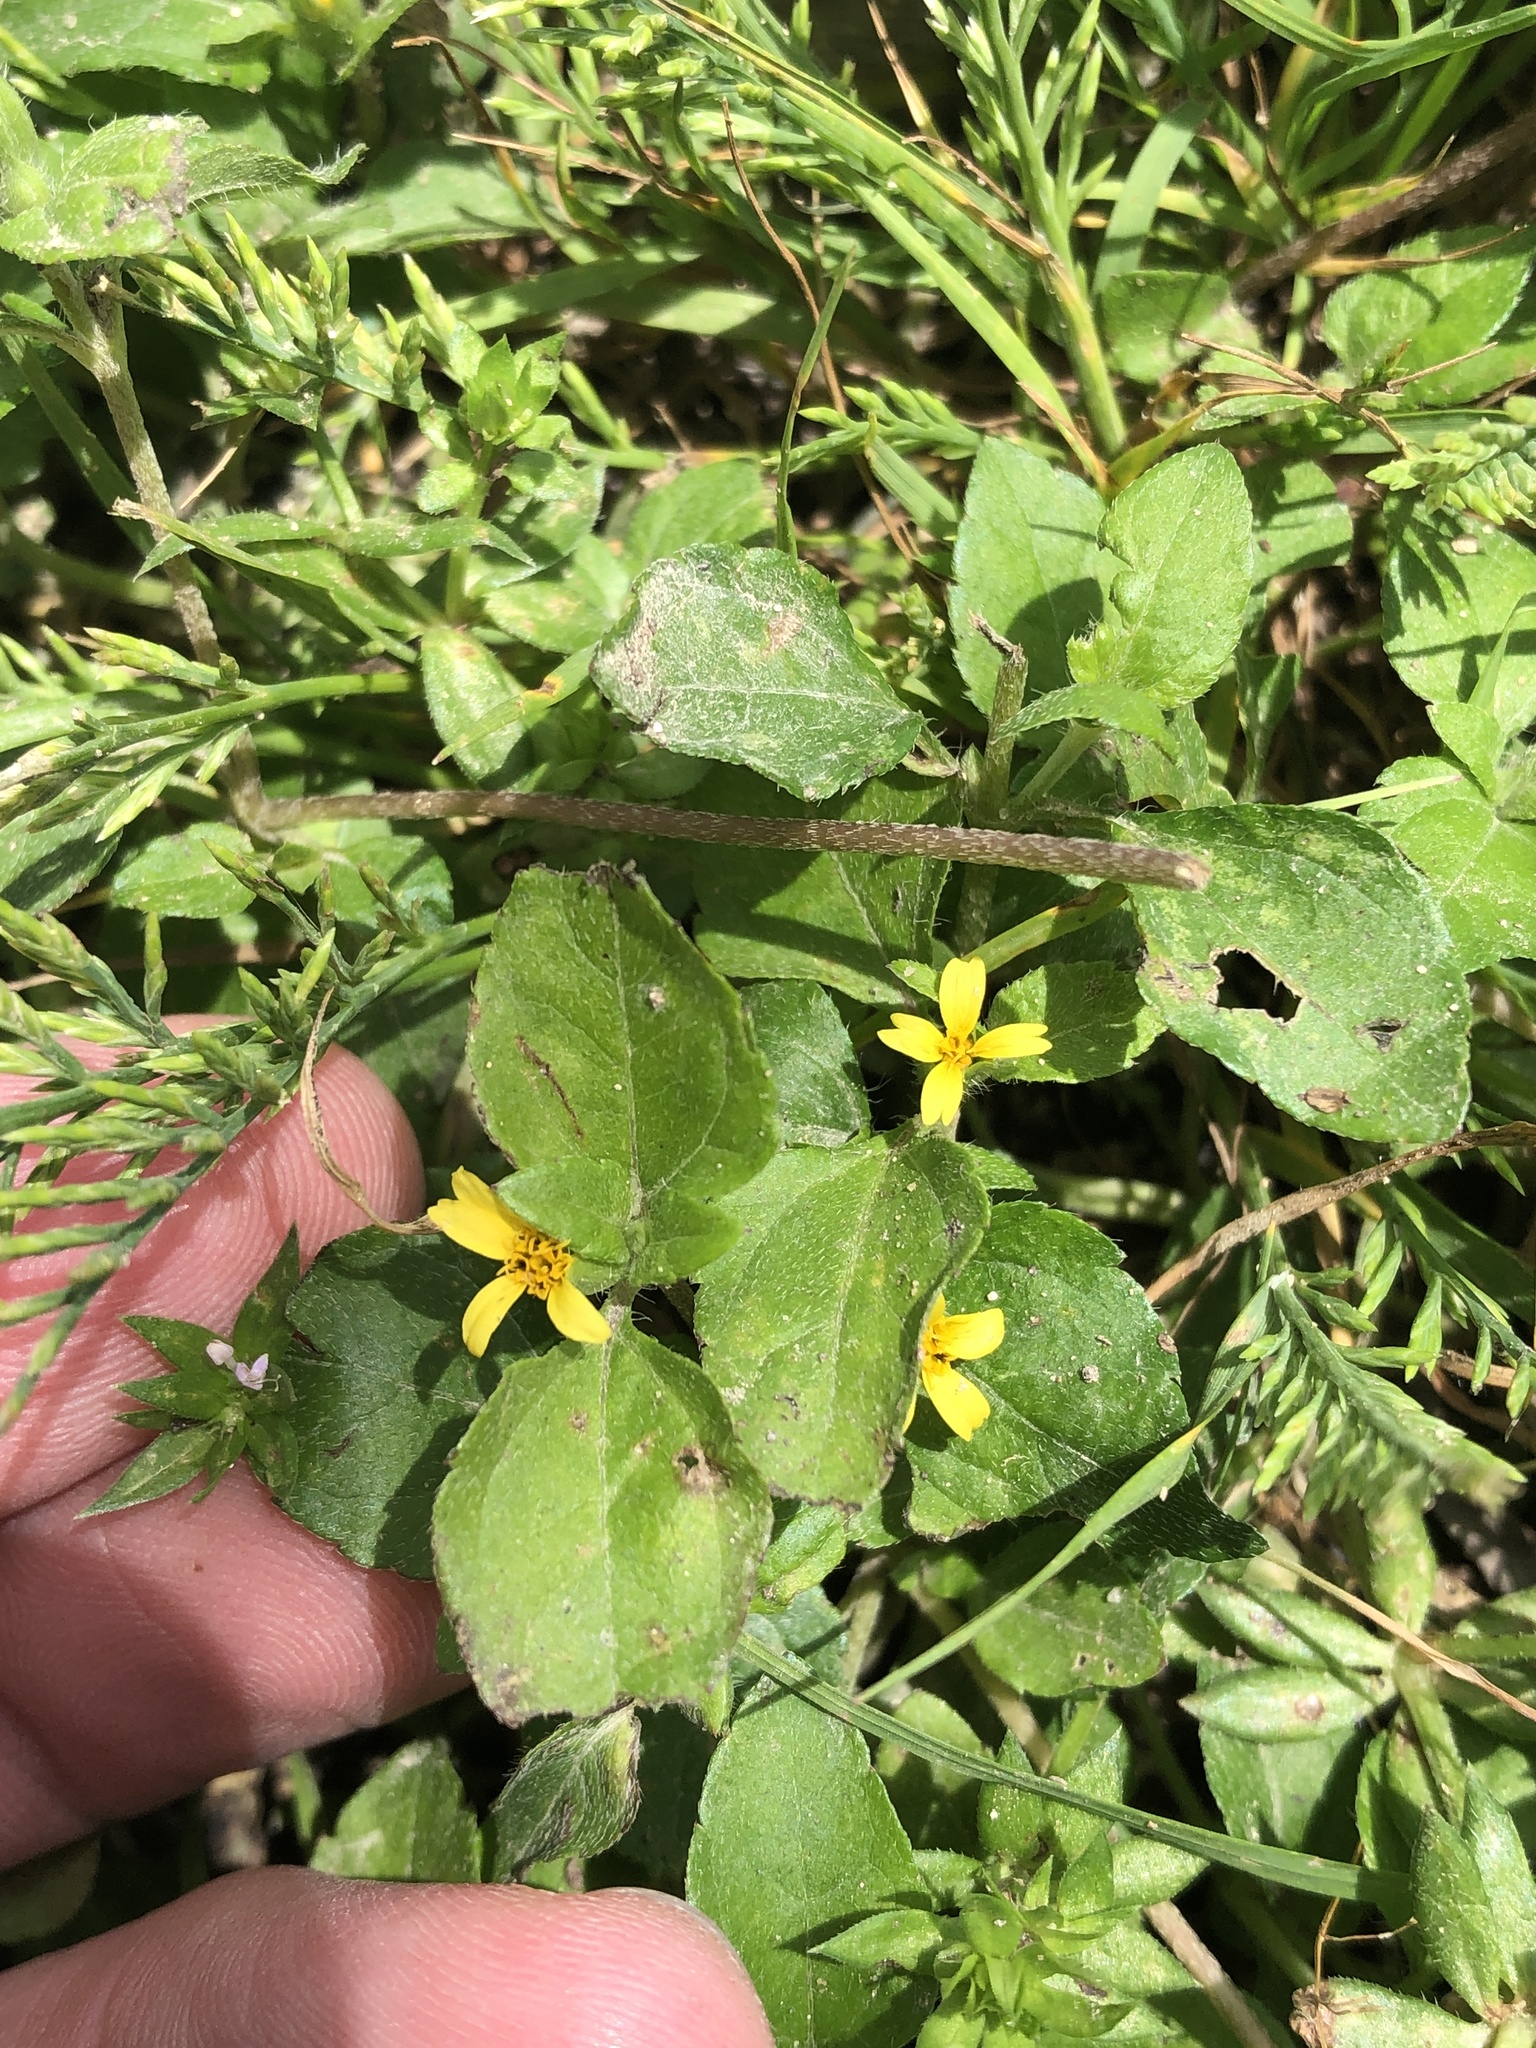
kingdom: Plantae
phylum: Tracheophyta
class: Magnoliopsida
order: Asterales
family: Asteraceae
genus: Calyptocarpus
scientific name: Calyptocarpus vialis
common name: Straggler daisy
